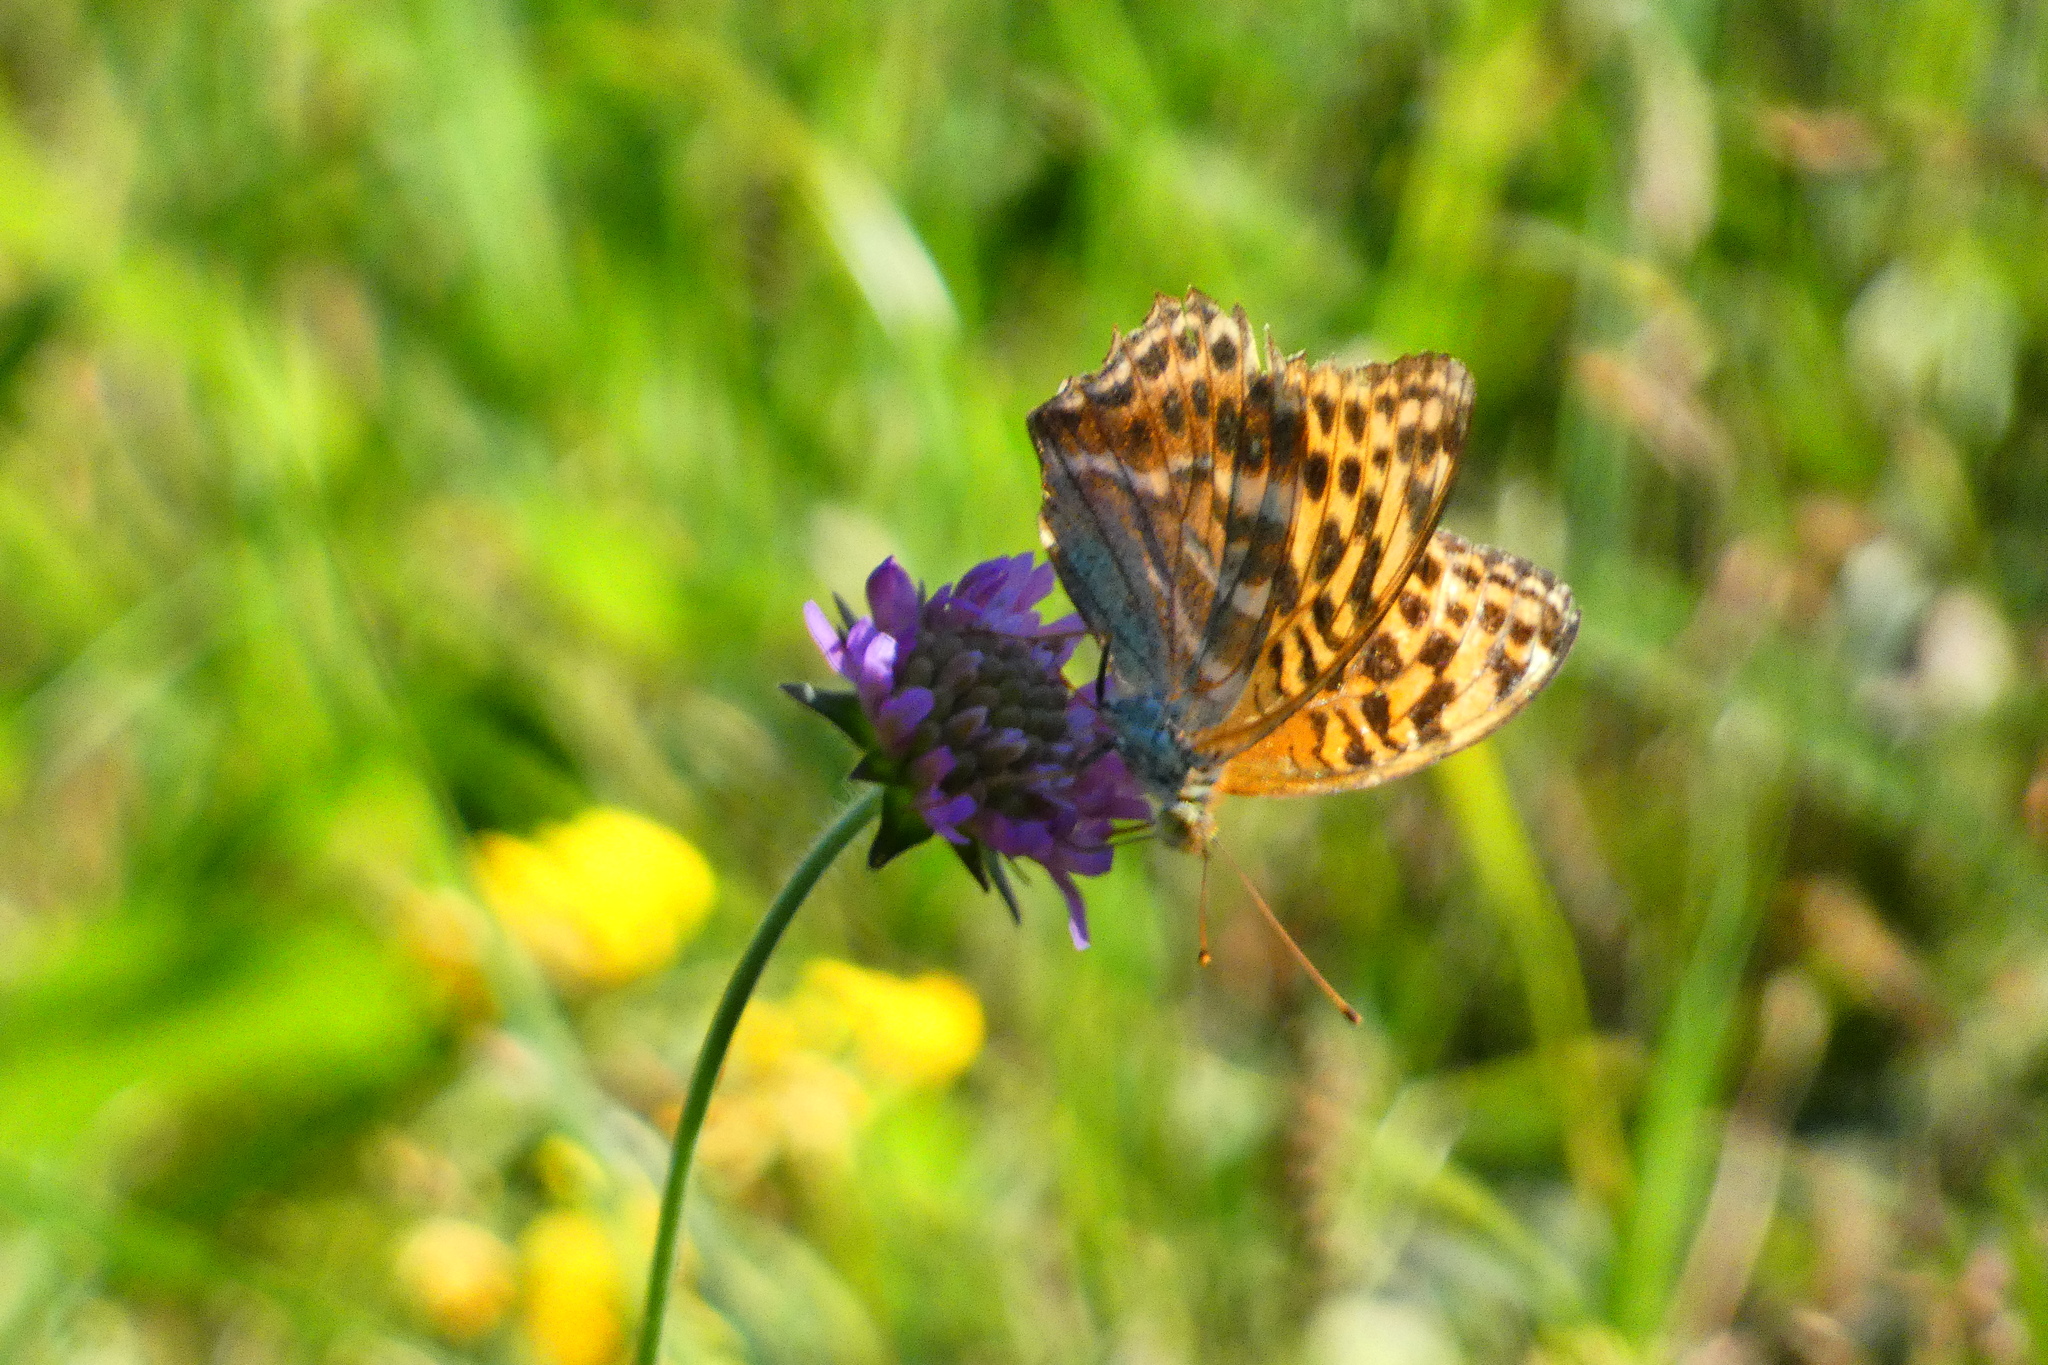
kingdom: Animalia
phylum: Arthropoda
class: Insecta
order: Lepidoptera
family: Nymphalidae
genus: Argynnis
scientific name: Argynnis paphia
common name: Silver-washed fritillary
